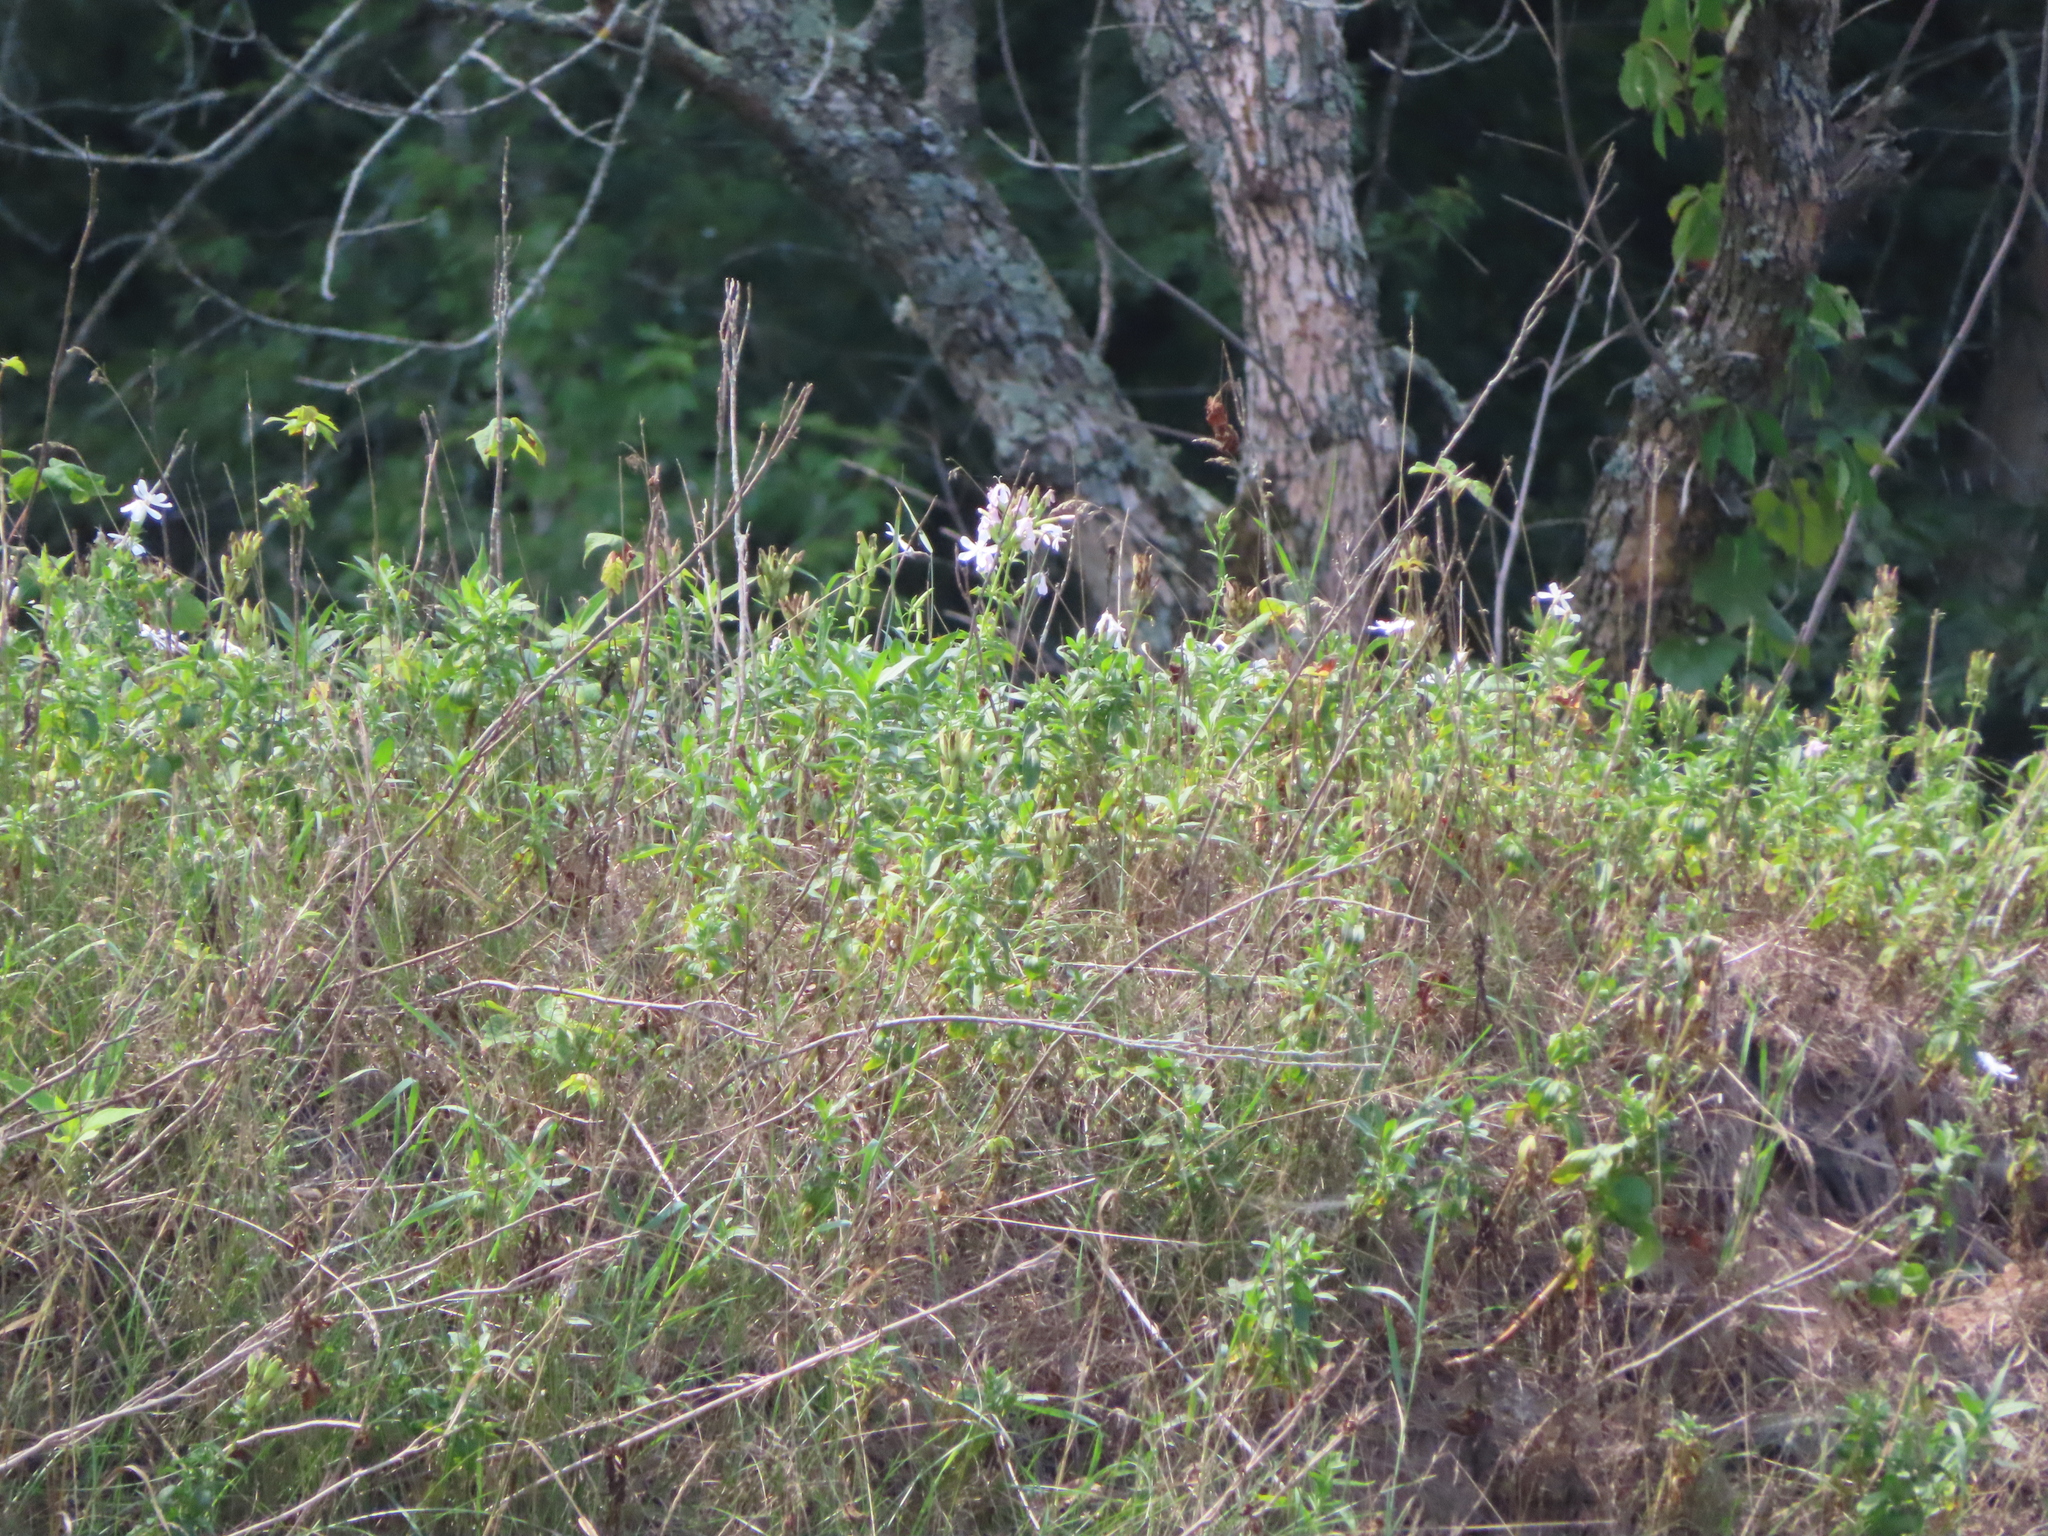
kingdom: Plantae
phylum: Tracheophyta
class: Magnoliopsida
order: Caryophyllales
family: Caryophyllaceae
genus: Saponaria
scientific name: Saponaria officinalis
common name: Soapwort
